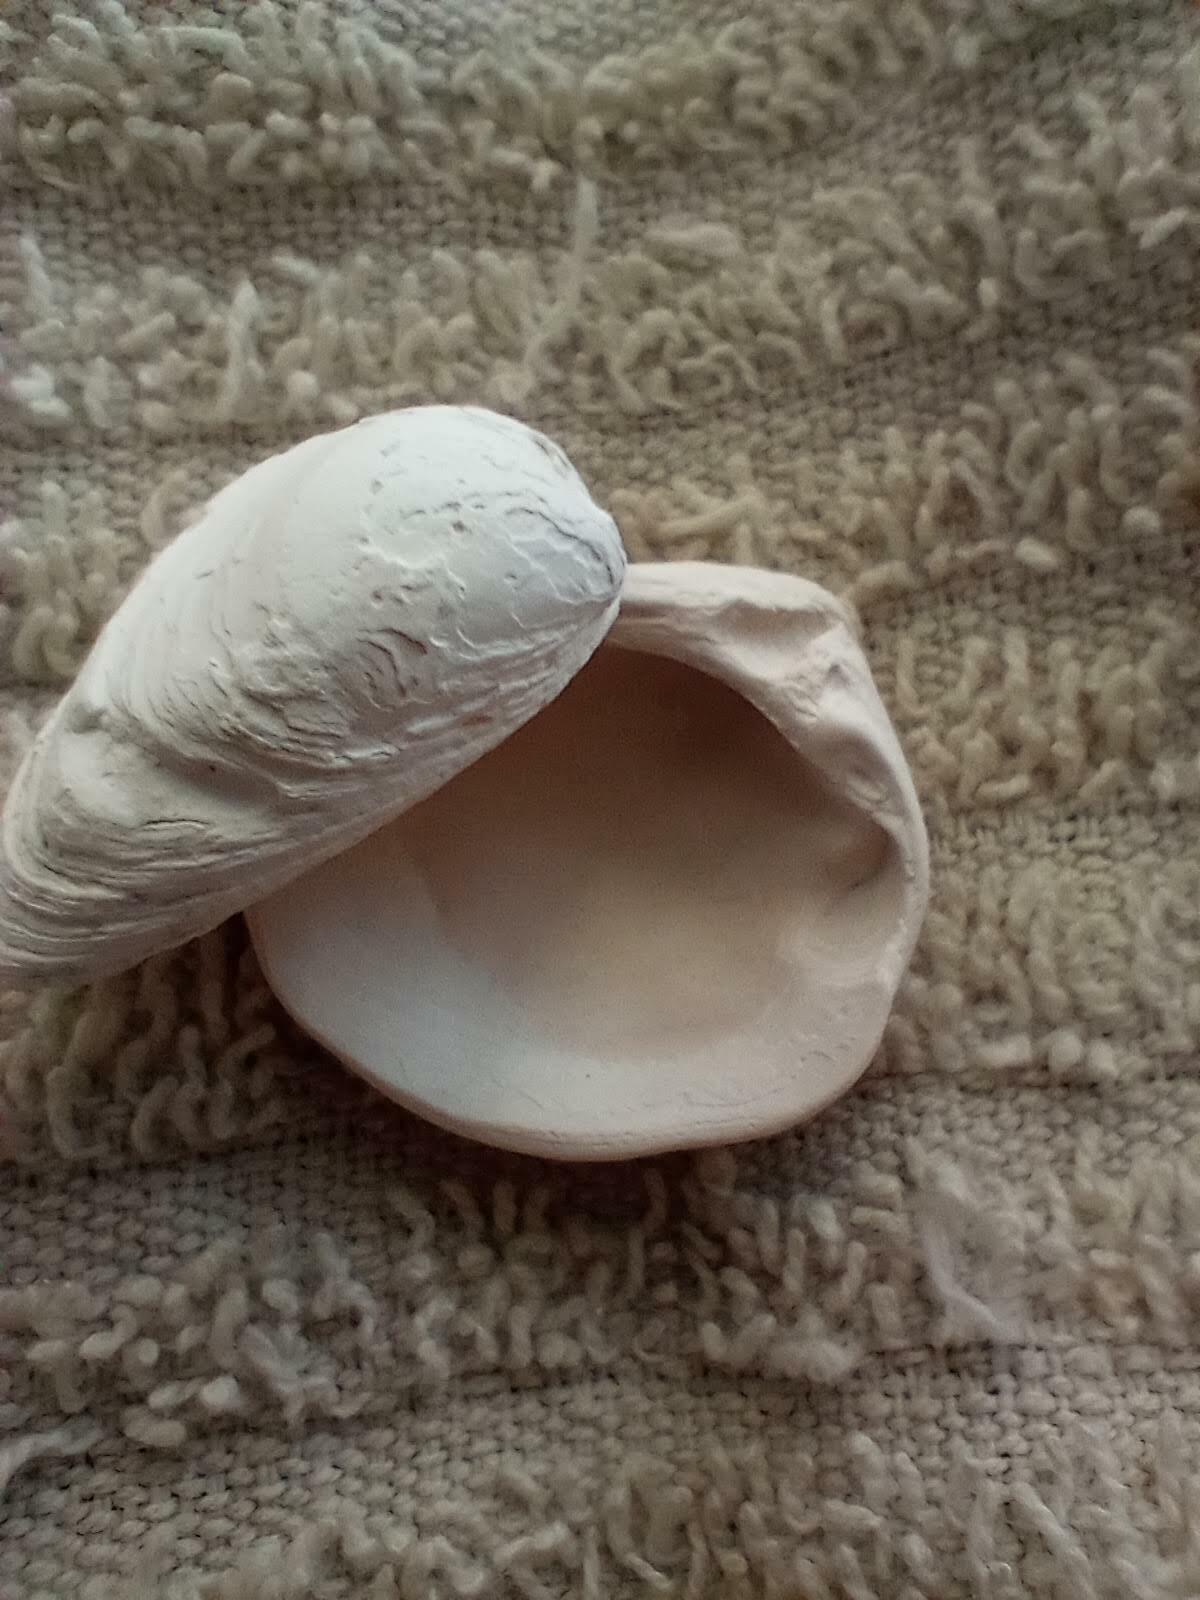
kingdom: Animalia
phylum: Mollusca
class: Bivalvia
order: Venerida
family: Mactridae
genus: Rangia
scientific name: Rangia cuneata
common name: Atlantic rangia
